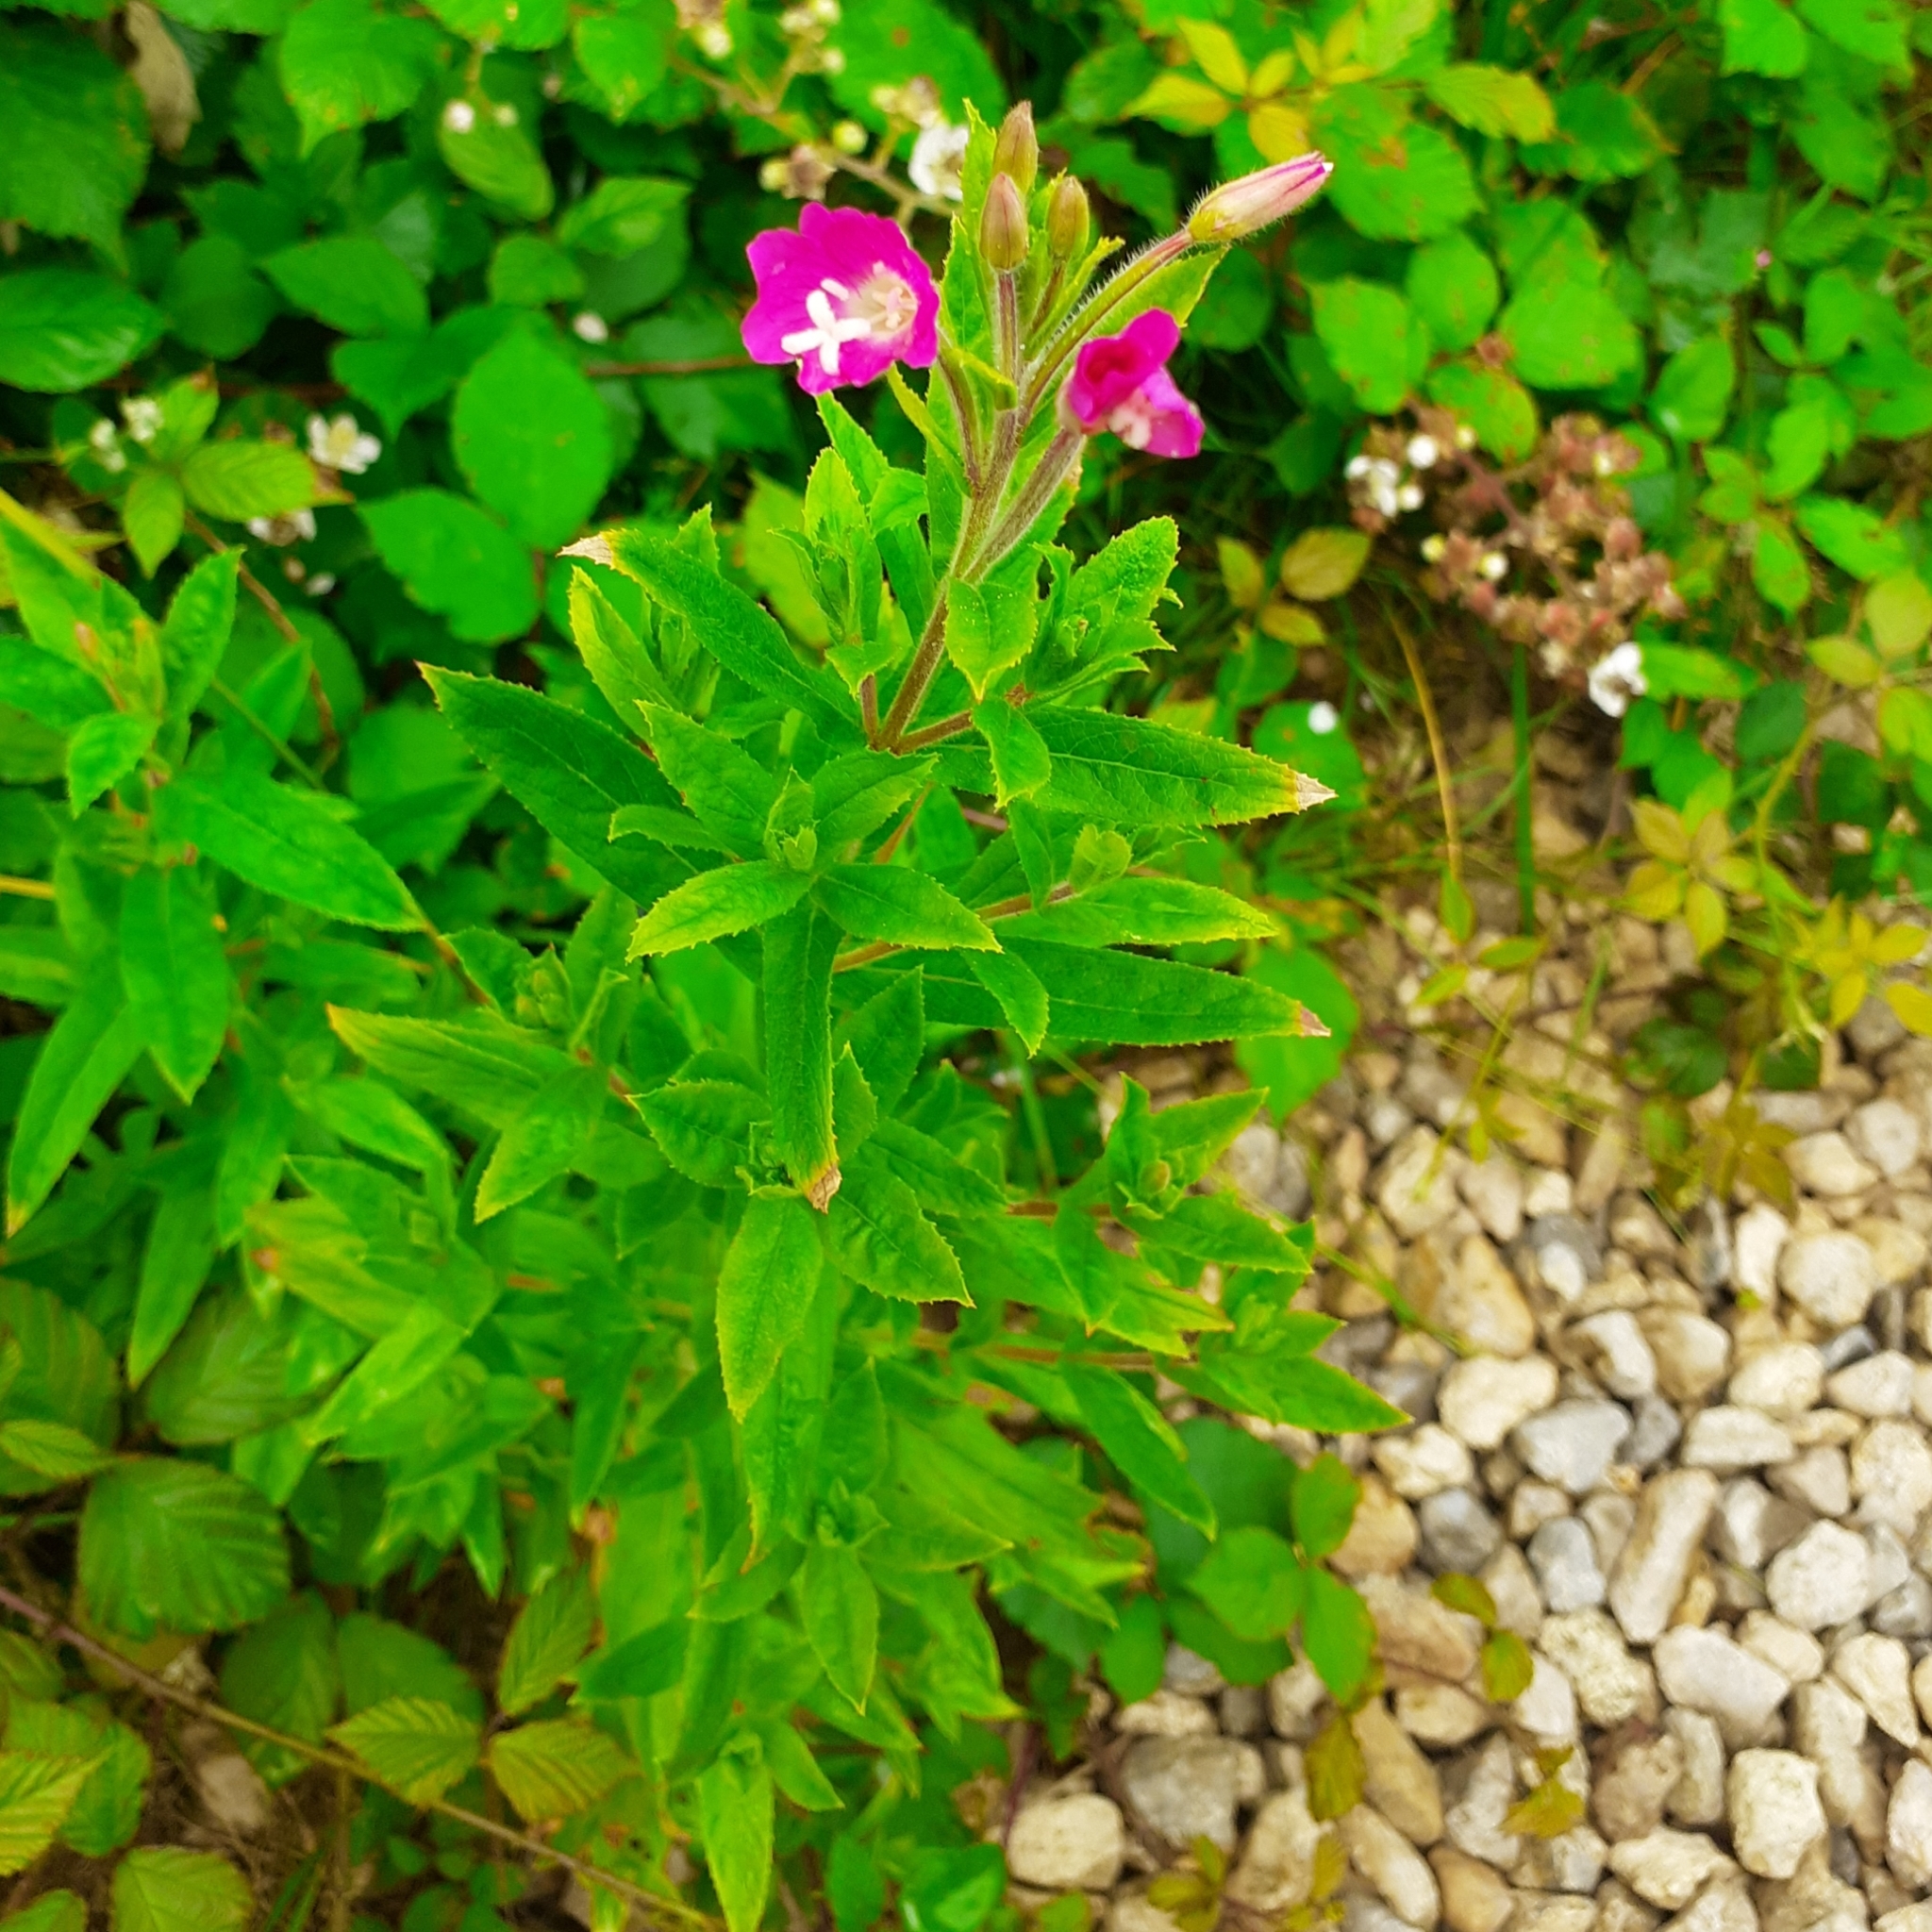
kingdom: Plantae
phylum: Tracheophyta
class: Magnoliopsida
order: Myrtales
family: Onagraceae
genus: Epilobium
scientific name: Epilobium hirsutum
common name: Great willowherb
